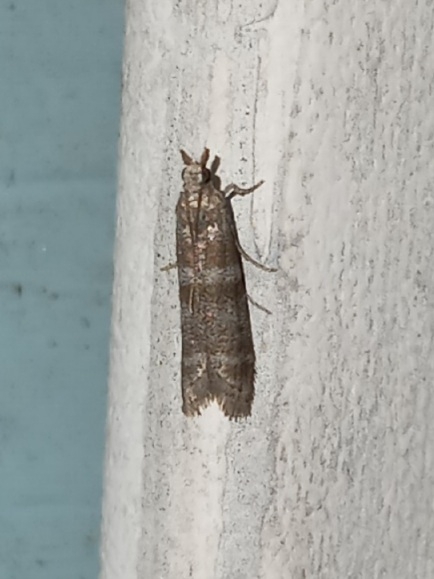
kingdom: Animalia
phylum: Arthropoda
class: Insecta
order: Lepidoptera
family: Pyralidae
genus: Ephestia
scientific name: Ephestia columbiella
